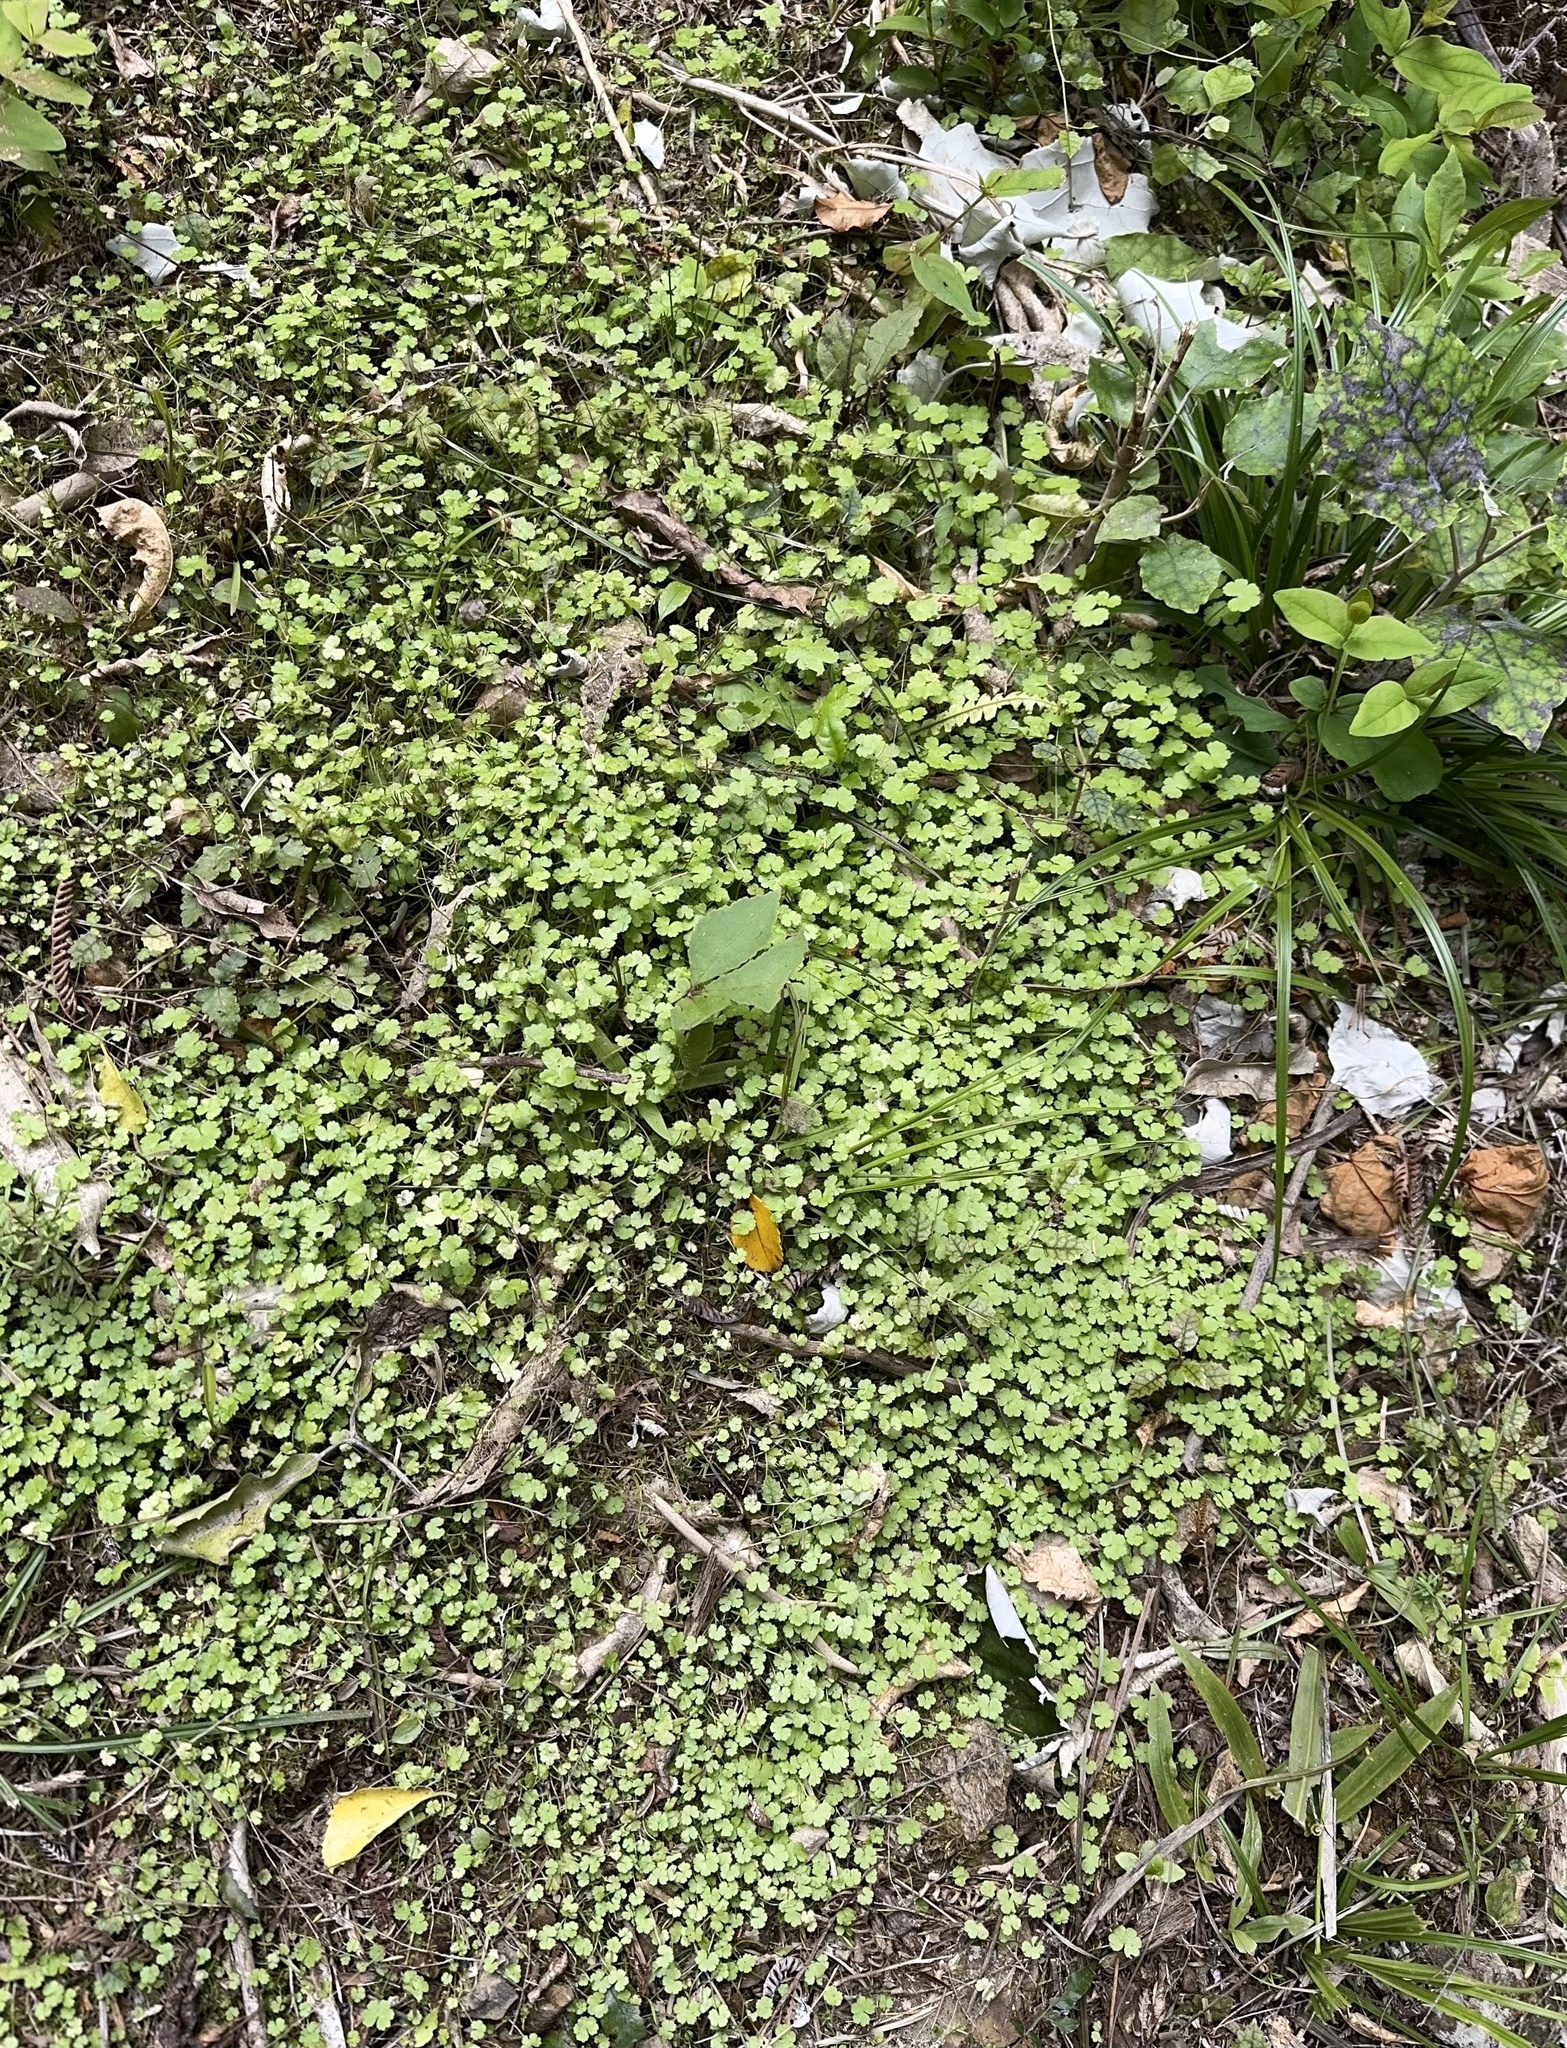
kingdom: Plantae
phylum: Tracheophyta
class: Magnoliopsida
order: Apiales
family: Araliaceae
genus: Hydrocotyle
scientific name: Hydrocotyle heteromeria
